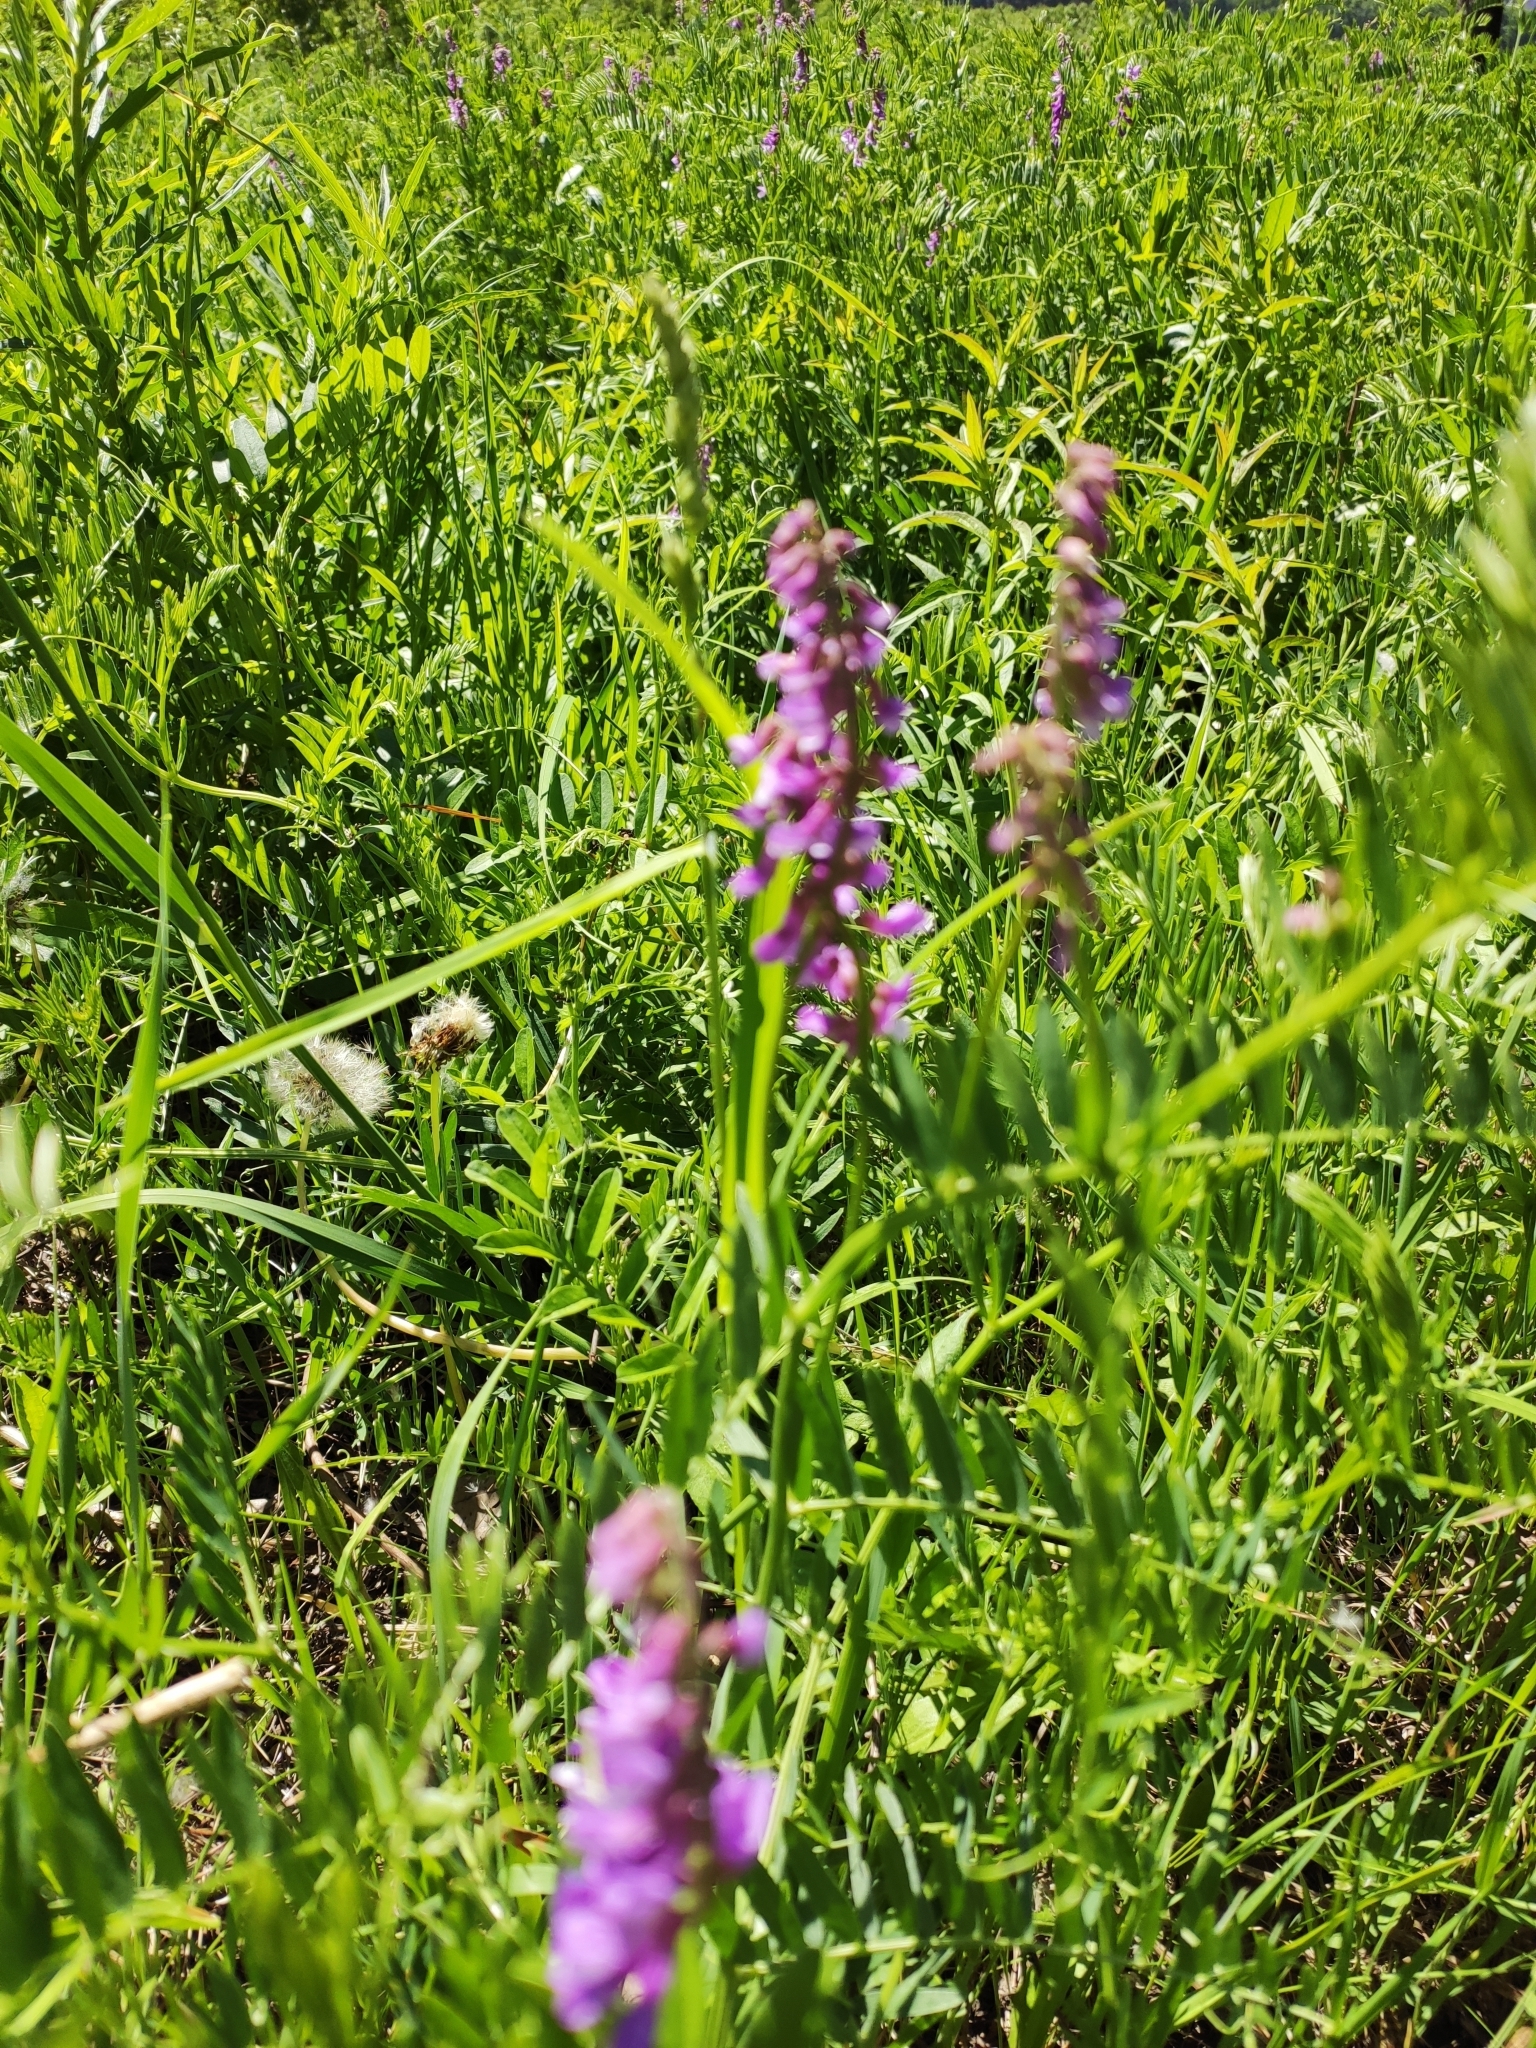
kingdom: Plantae
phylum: Tracheophyta
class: Magnoliopsida
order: Fabales
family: Fabaceae
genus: Vicia
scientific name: Vicia tenuifolia
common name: Fine-leaved vetch
